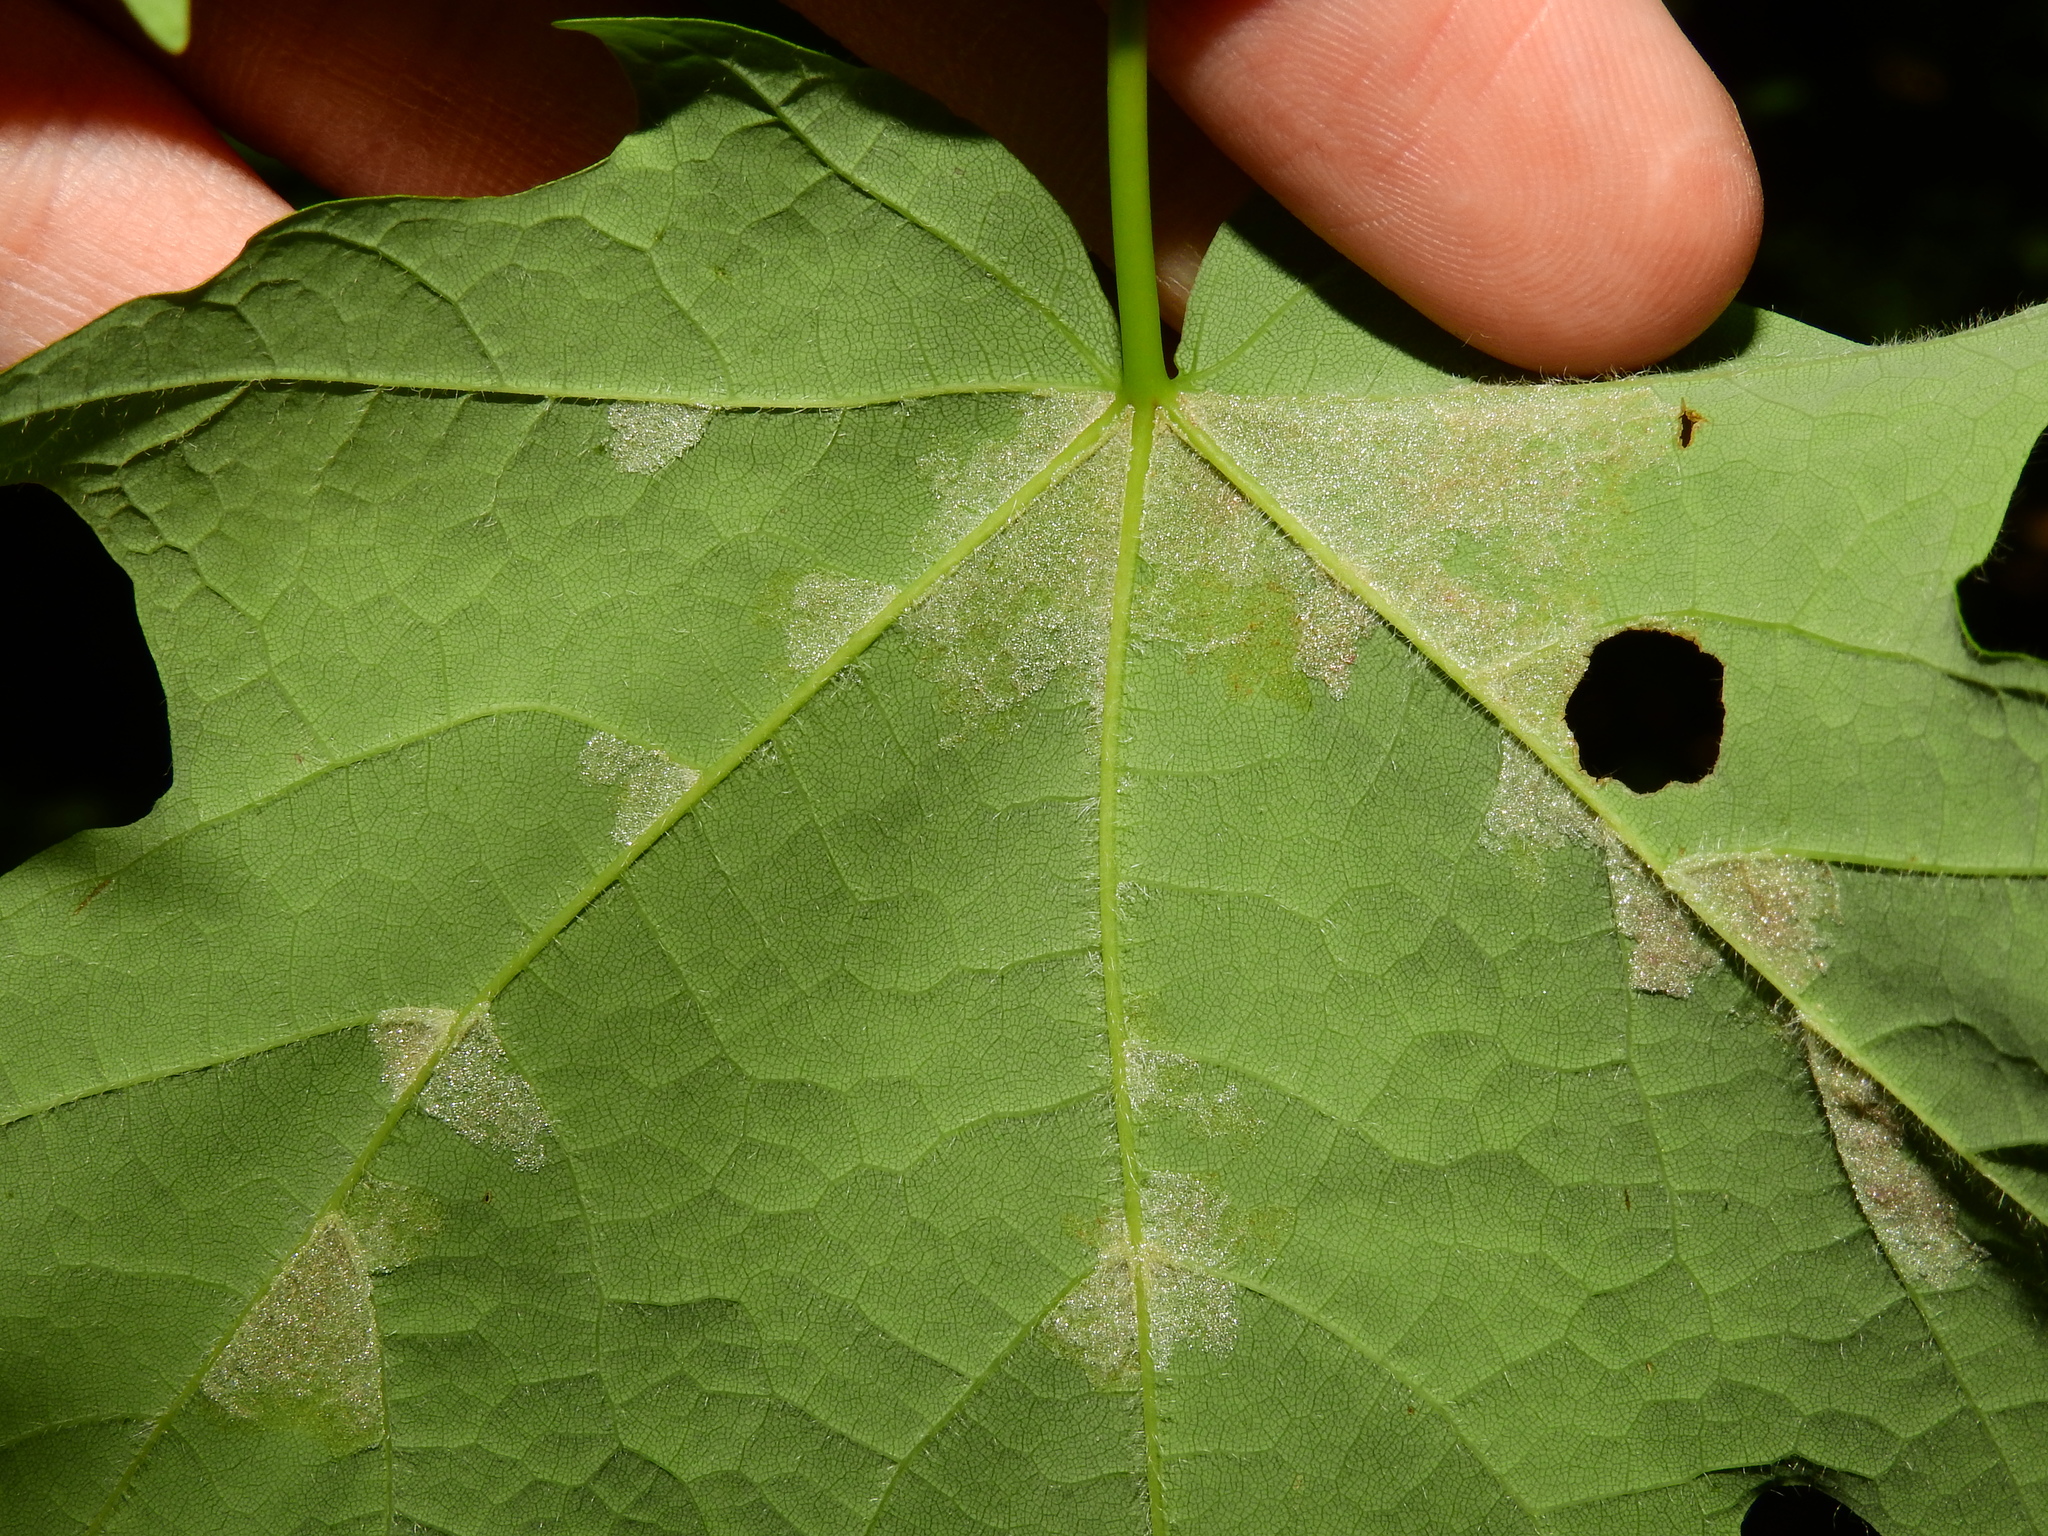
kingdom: Animalia
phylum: Arthropoda
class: Arachnida
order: Trombidiformes
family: Eriophyidae
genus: Aceria
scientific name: Aceria
